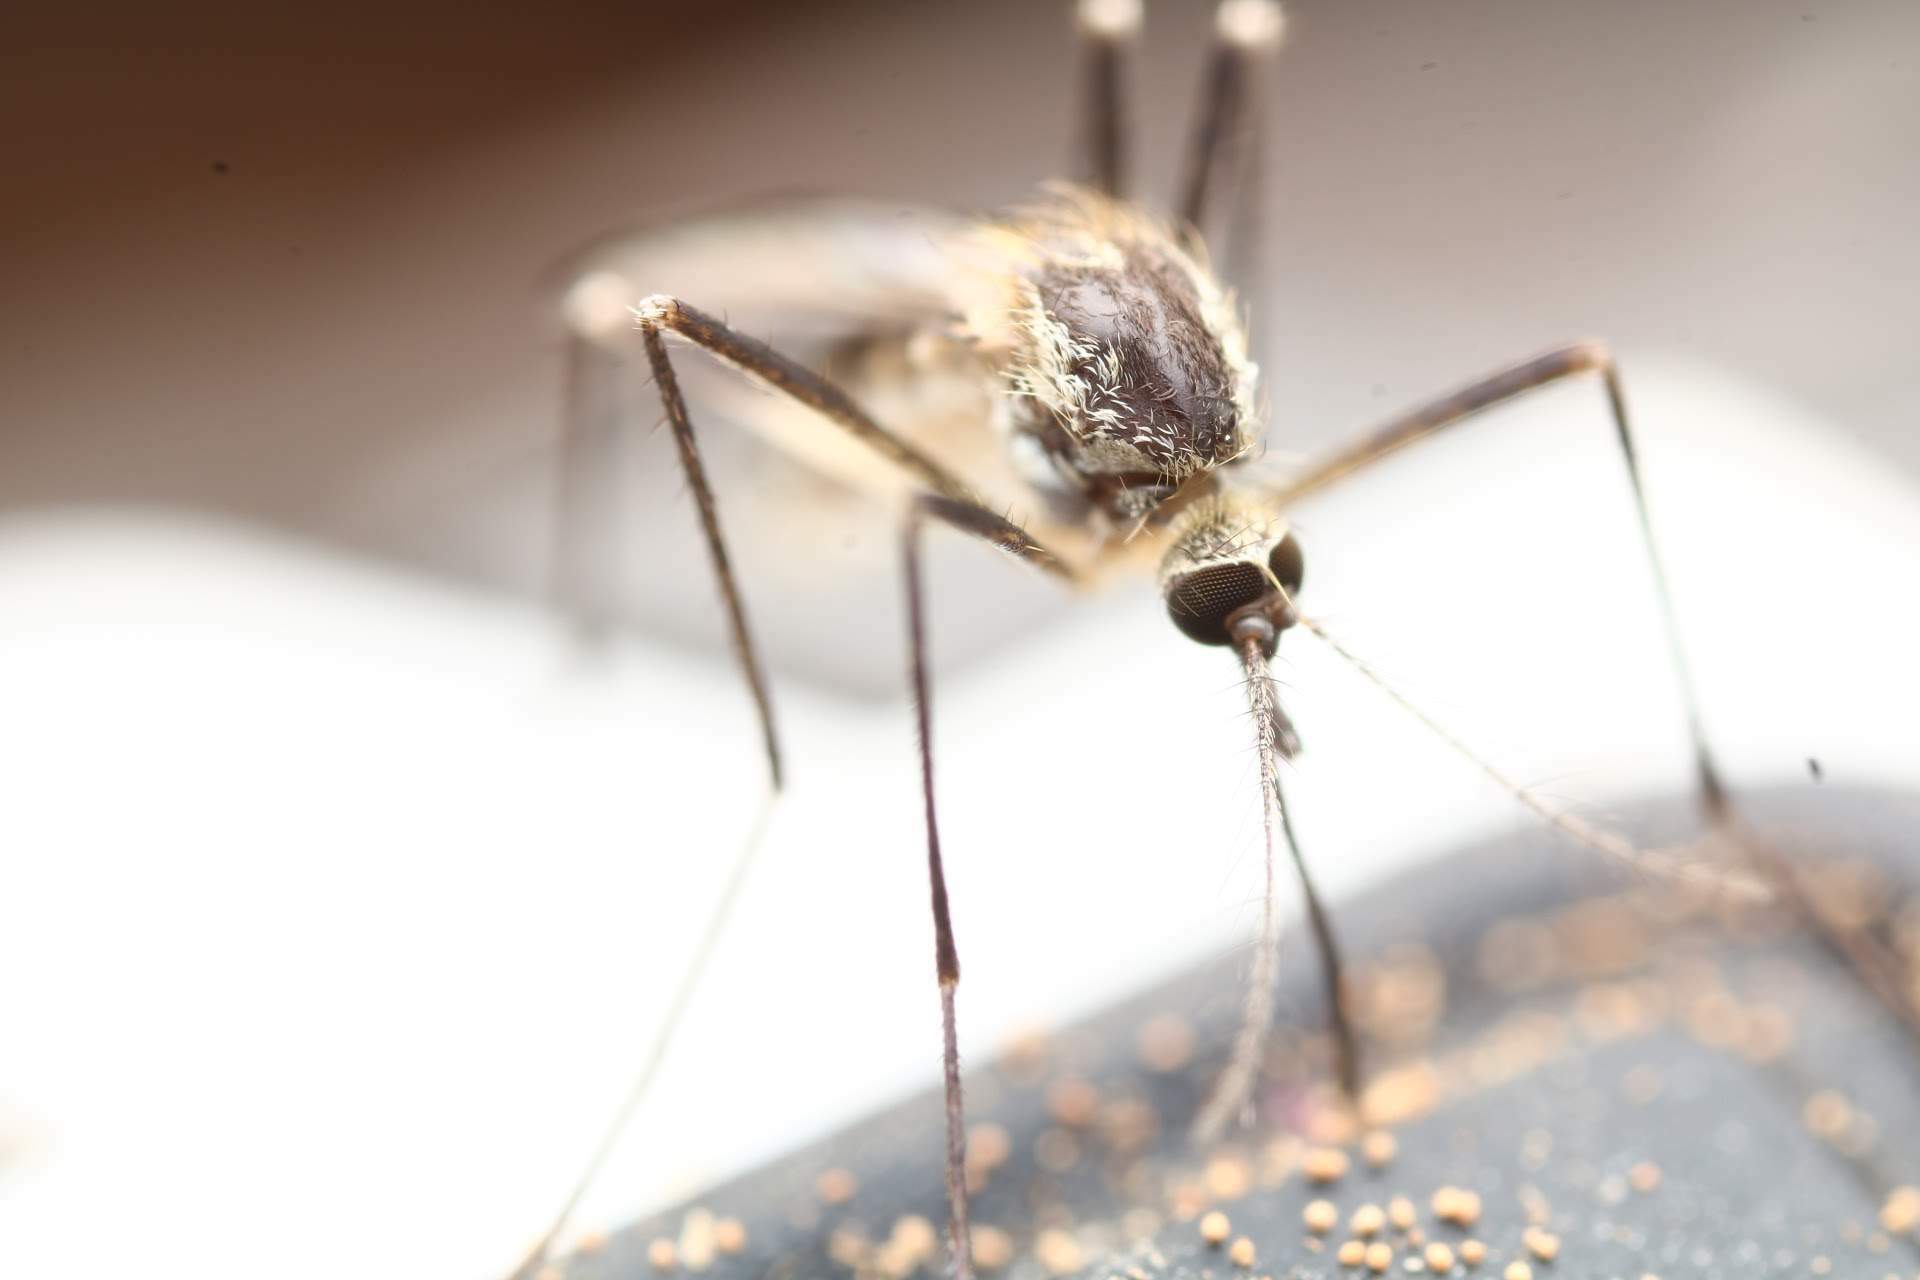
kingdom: Animalia
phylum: Arthropoda
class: Insecta
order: Diptera
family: Culicidae
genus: Aedes
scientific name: Aedes triseriatus
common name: Eastern treehole mosquito
